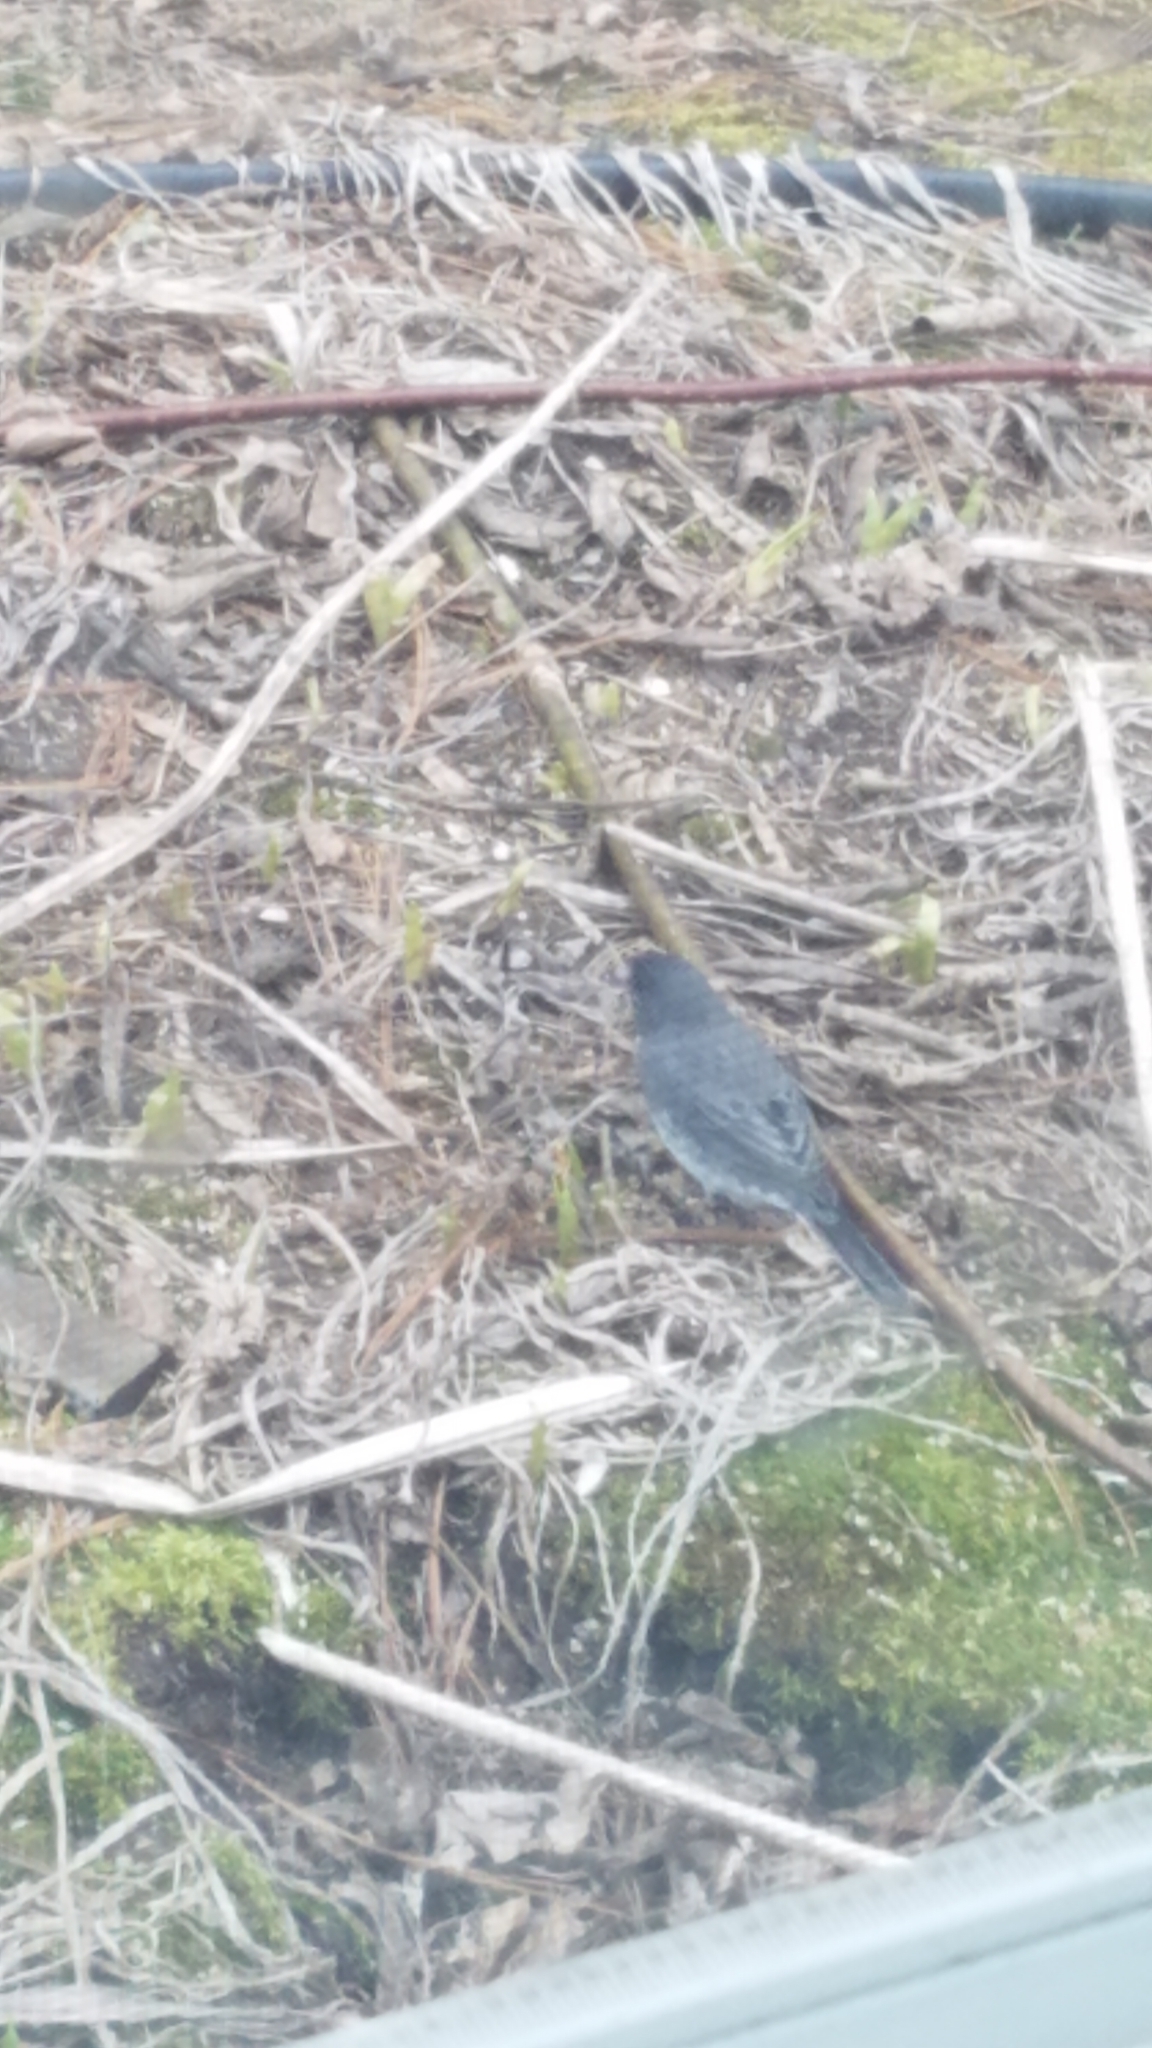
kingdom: Animalia
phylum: Chordata
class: Aves
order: Passeriformes
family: Passerellidae
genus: Junco
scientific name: Junco hyemalis
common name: Dark-eyed junco
